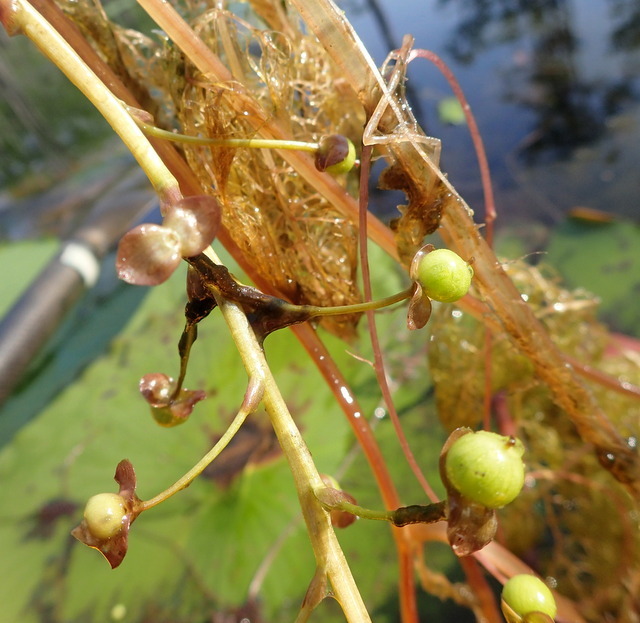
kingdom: Plantae
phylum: Tracheophyta
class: Magnoliopsida
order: Lamiales
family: Lentibulariaceae
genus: Utricularia
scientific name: Utricularia foliosa
